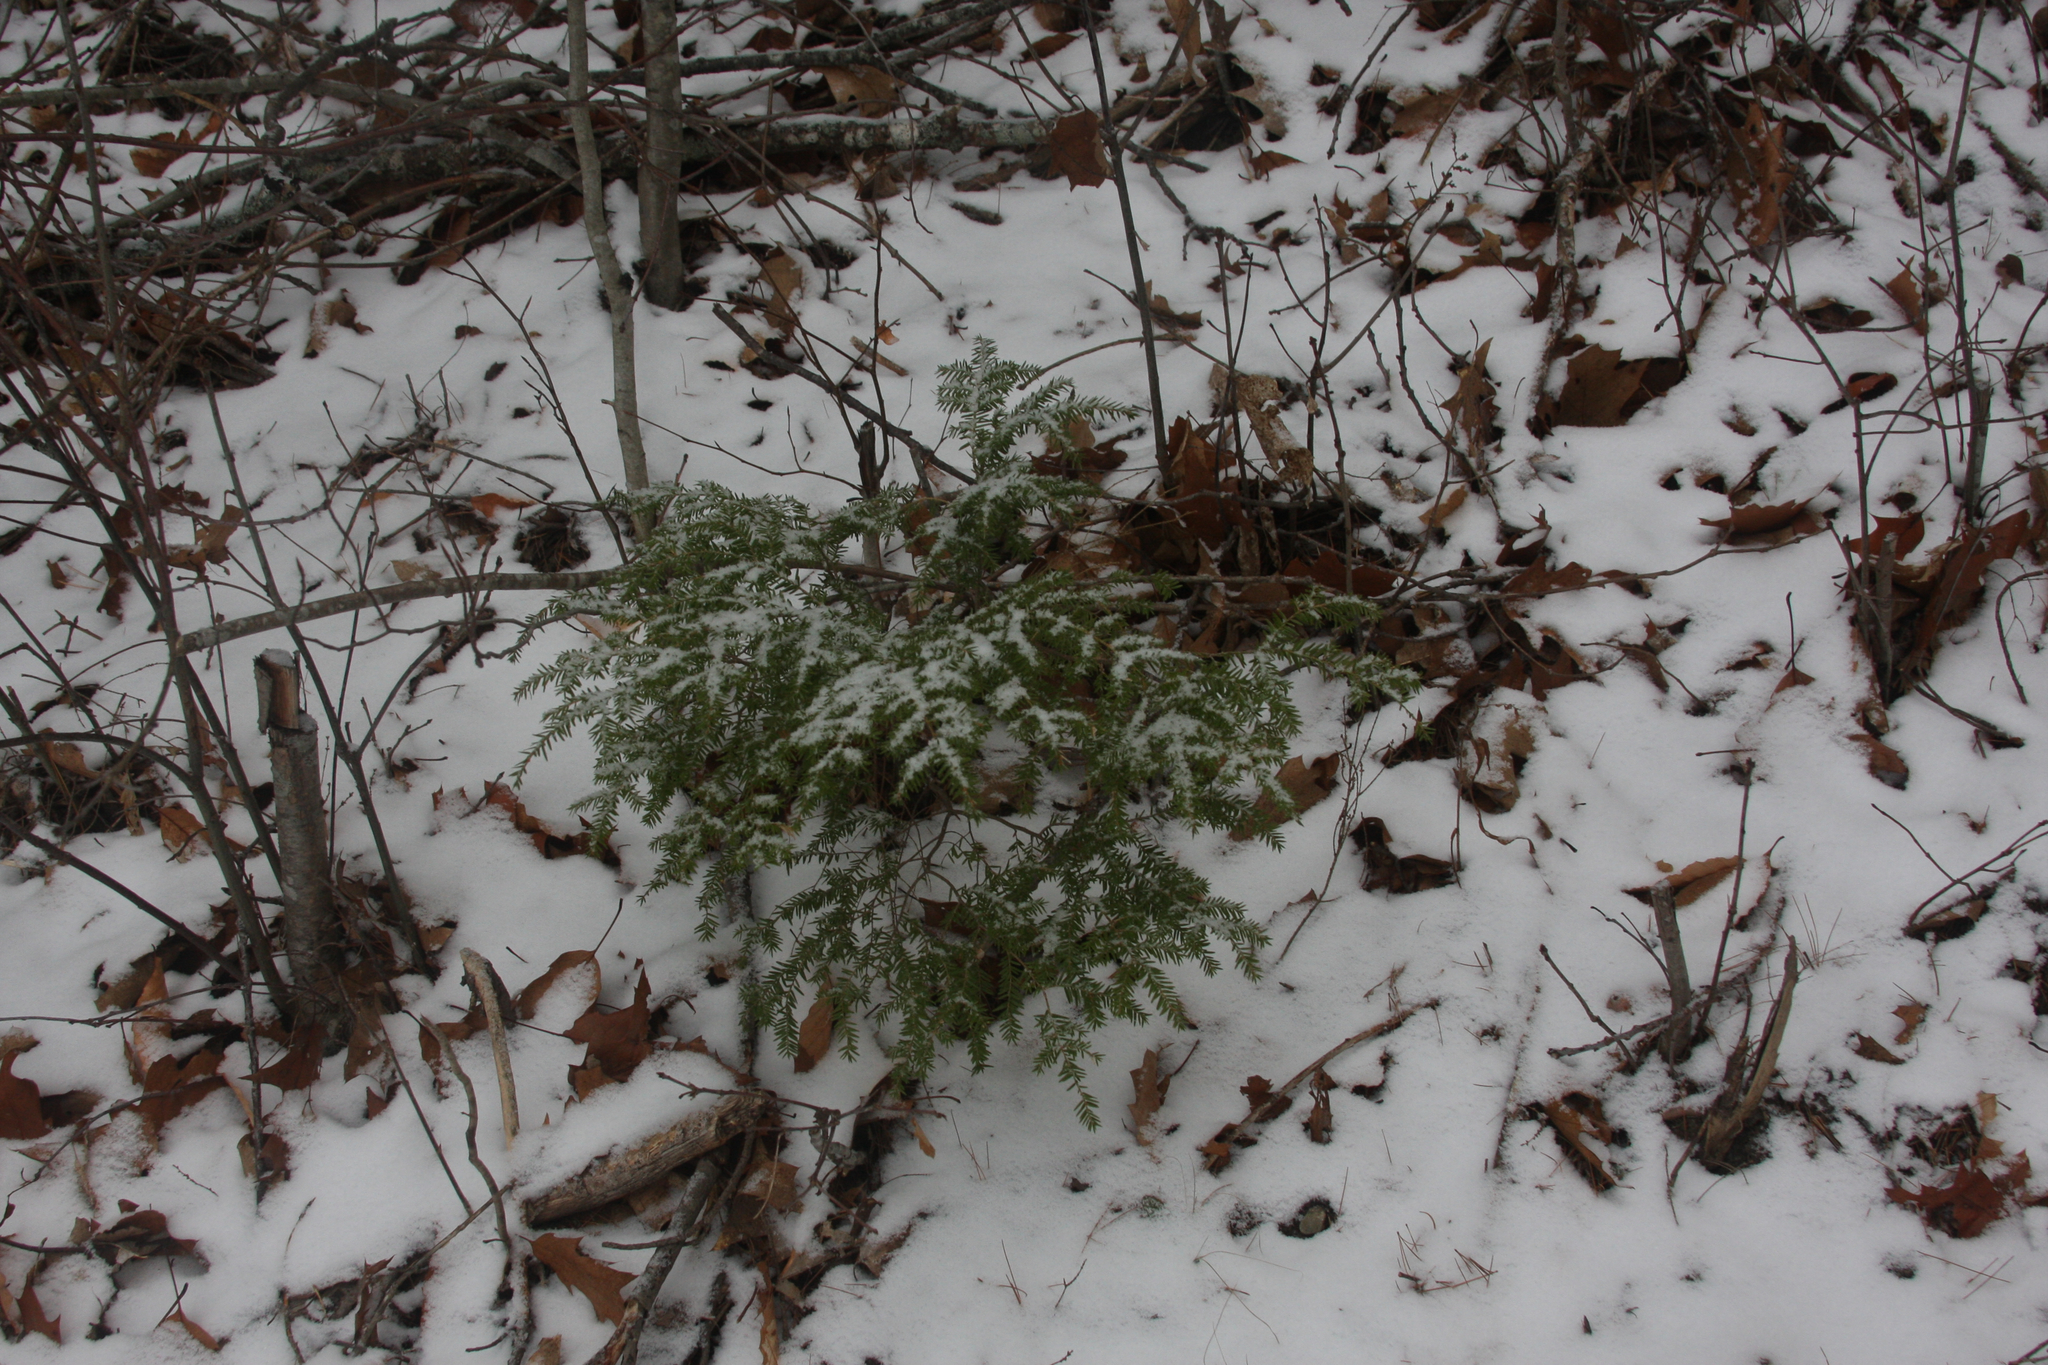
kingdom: Plantae
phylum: Tracheophyta
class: Pinopsida
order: Pinales
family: Pinaceae
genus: Tsuga
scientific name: Tsuga canadensis
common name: Eastern hemlock
